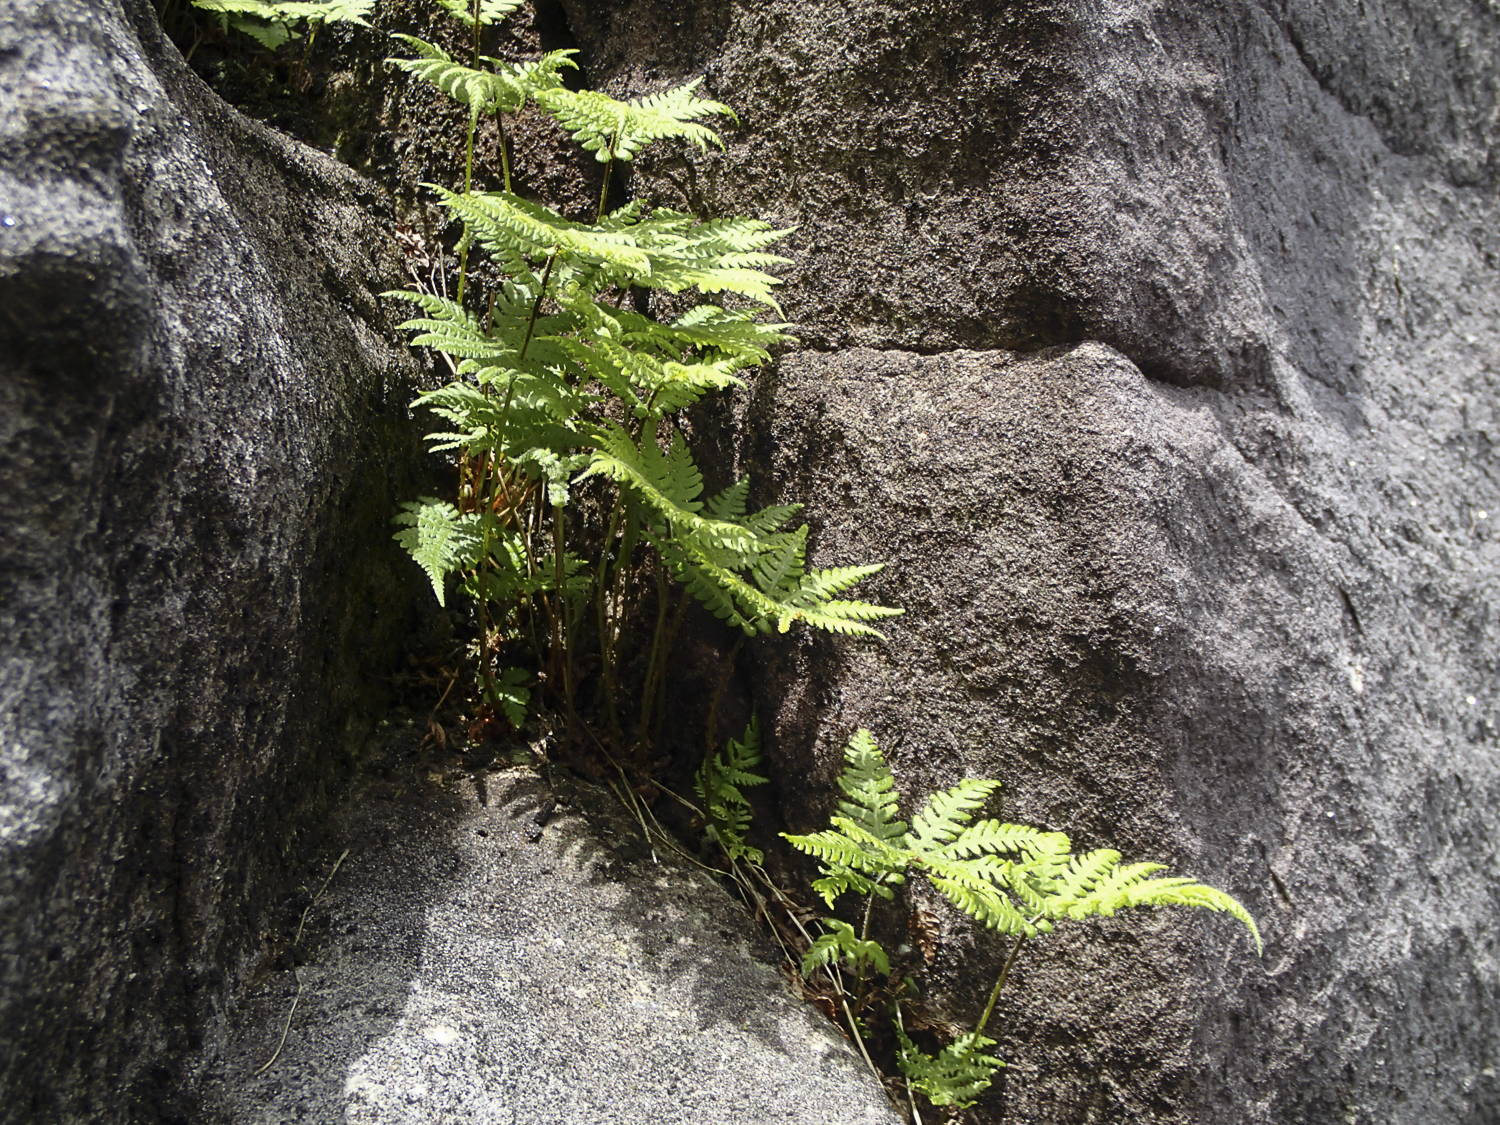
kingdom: Plantae
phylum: Tracheophyta
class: Polypodiopsida
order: Polypodiales
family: Thelypteridaceae
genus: Phegopteris
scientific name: Phegopteris connectilis
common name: Beech fern
